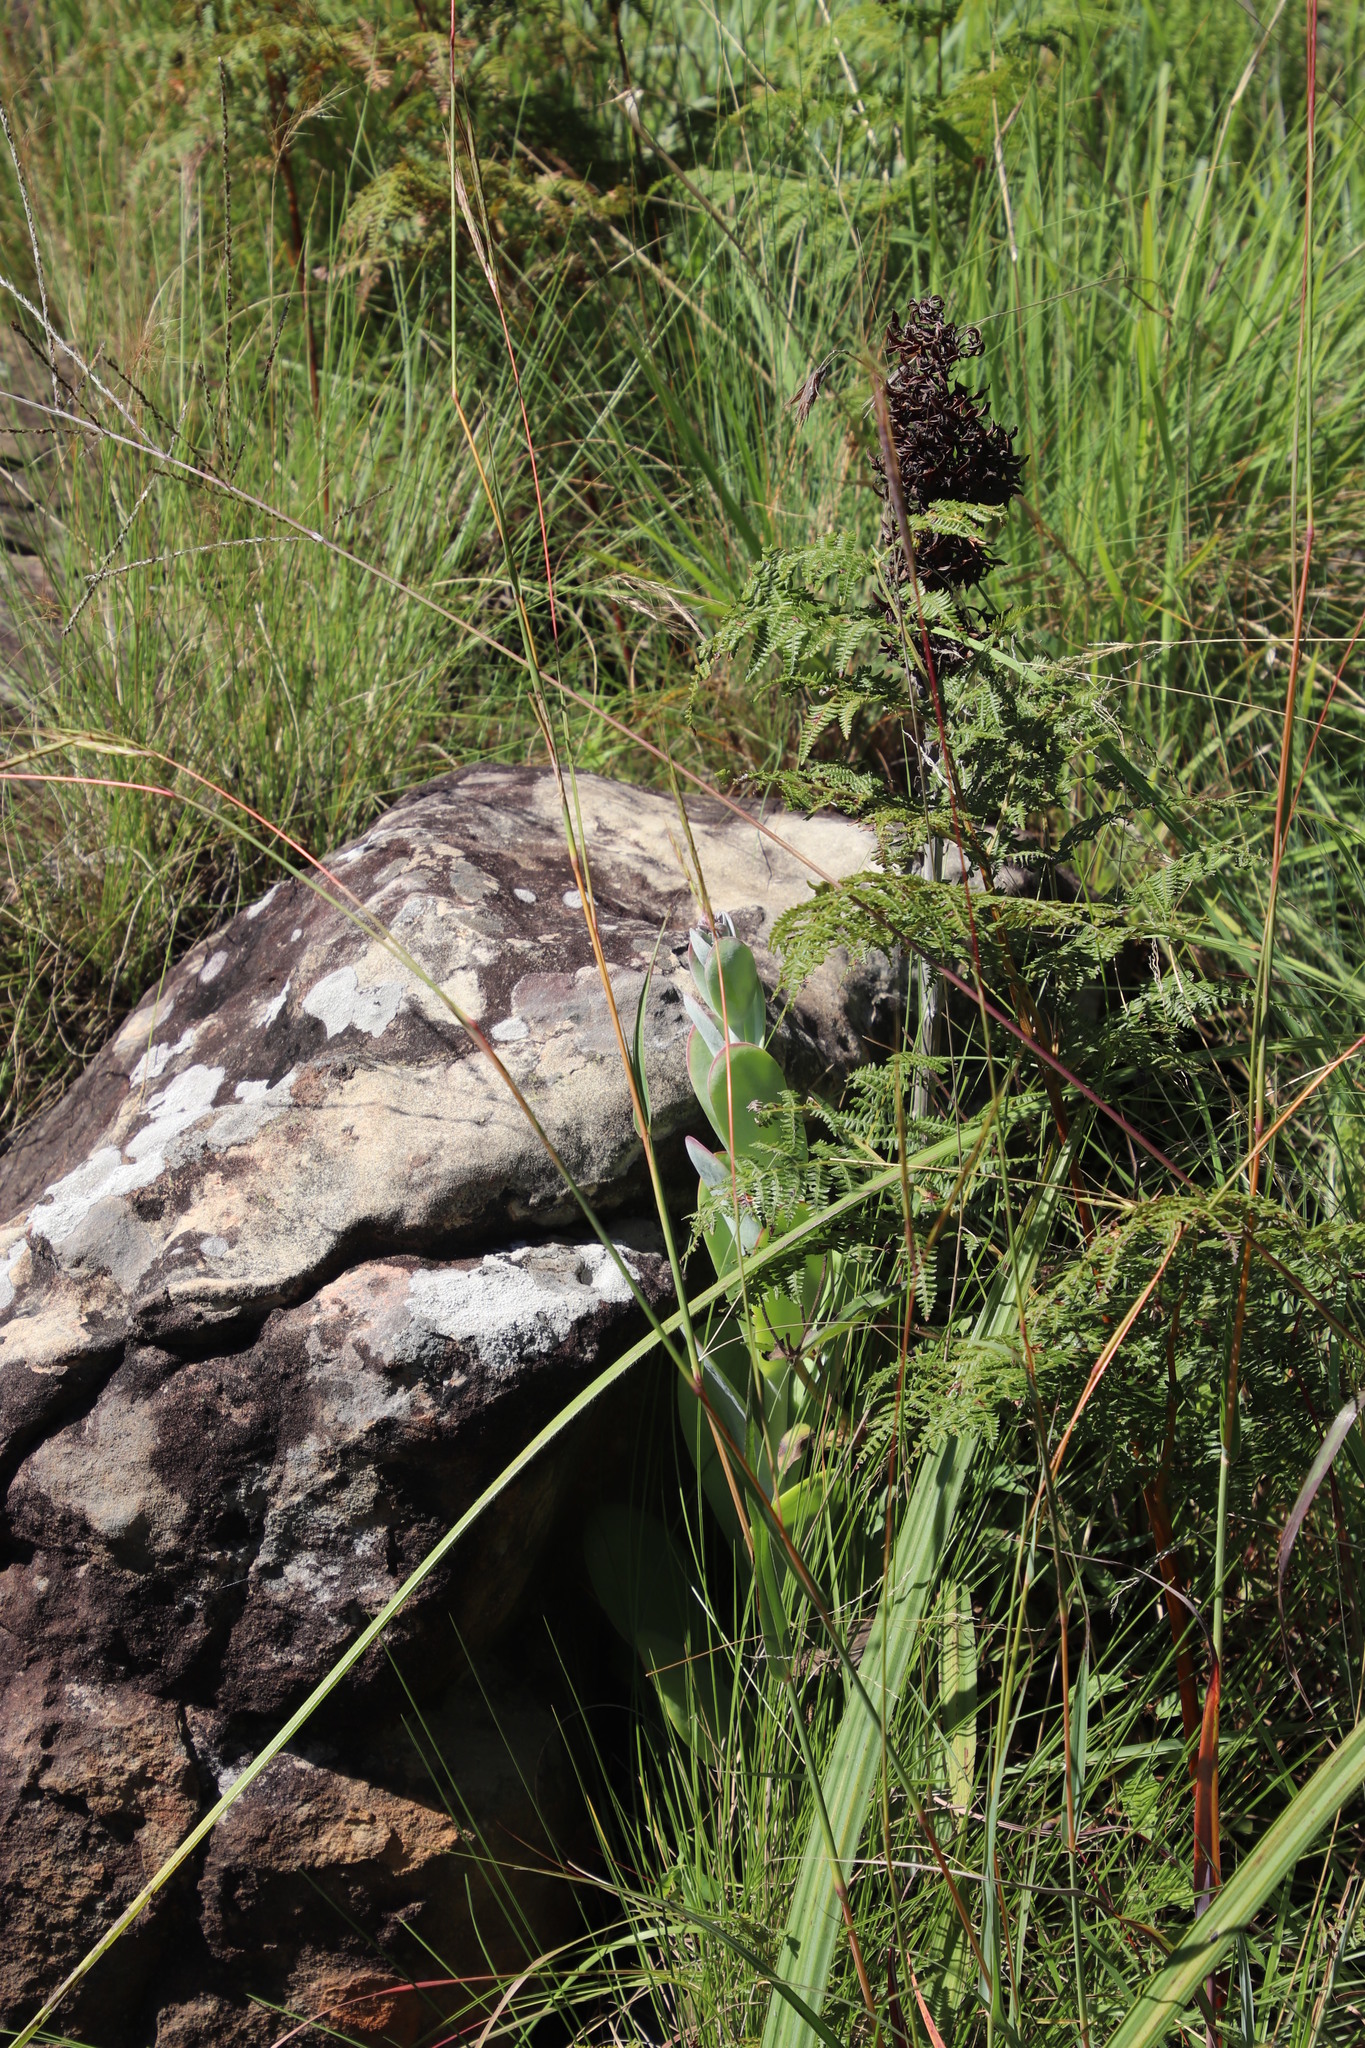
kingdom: Plantae
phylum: Tracheophyta
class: Magnoliopsida
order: Saxifragales
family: Crassulaceae
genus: Kalanchoe
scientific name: Kalanchoe thyrsiflora
